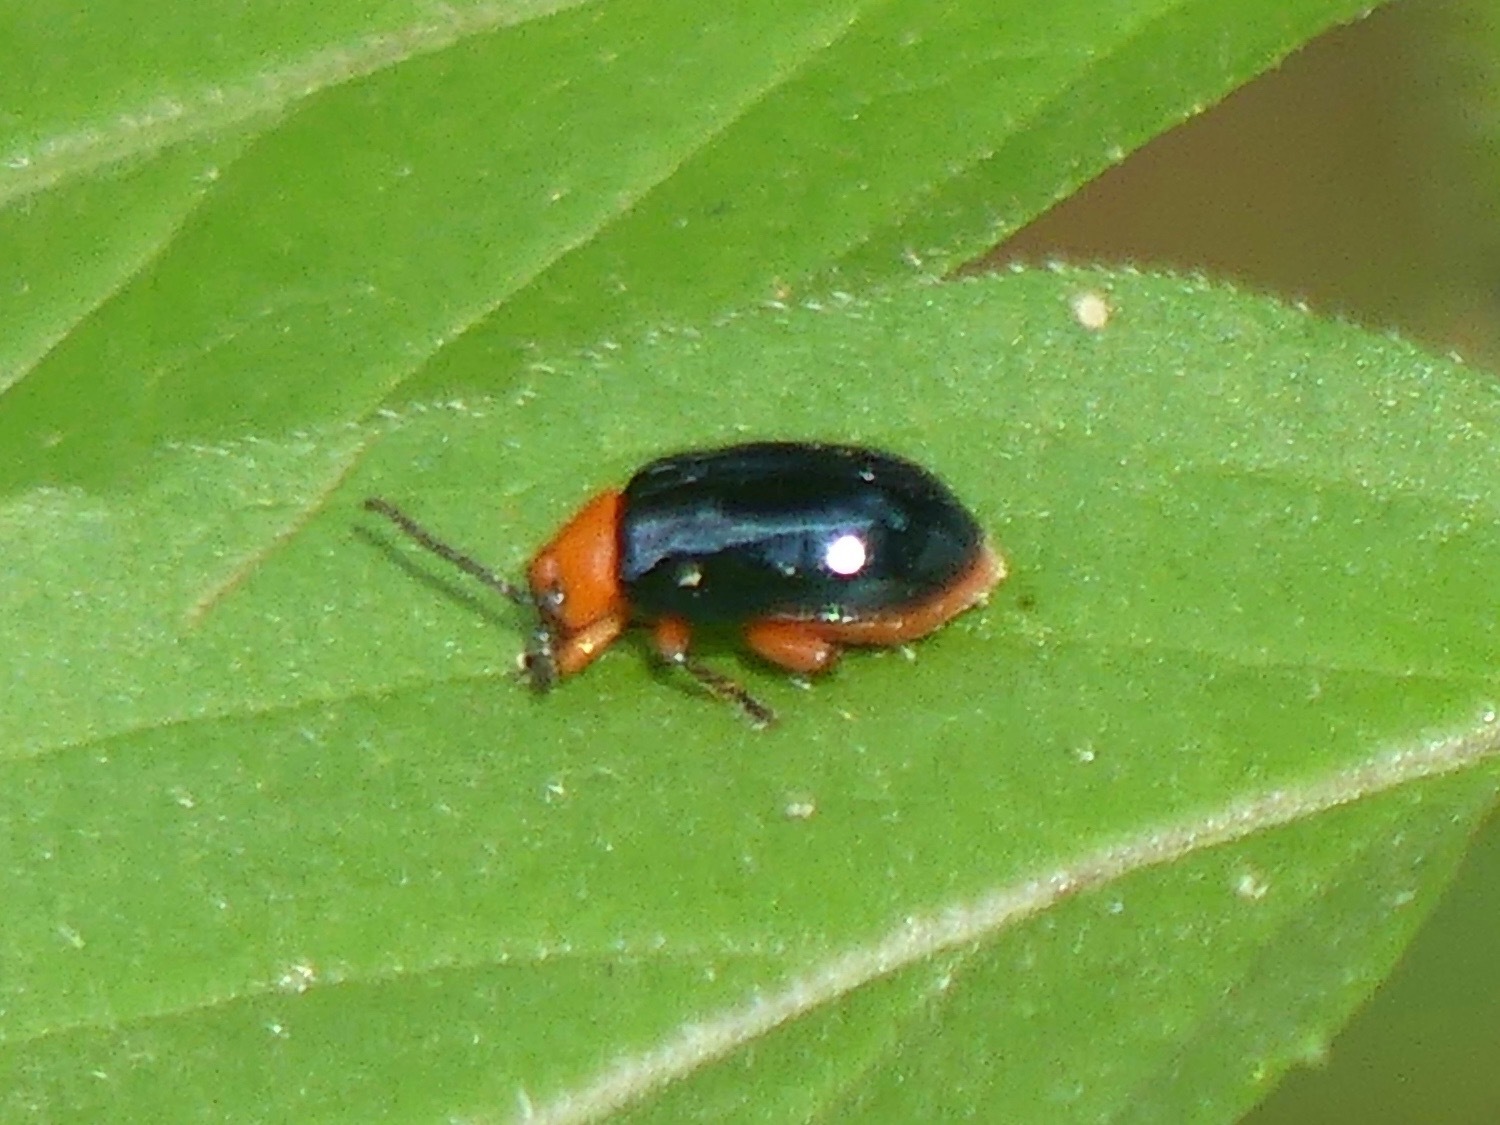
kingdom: Animalia
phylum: Arthropoda
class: Insecta
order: Coleoptera
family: Chrysomelidae
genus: Asphaera
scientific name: Asphaera lustrans
